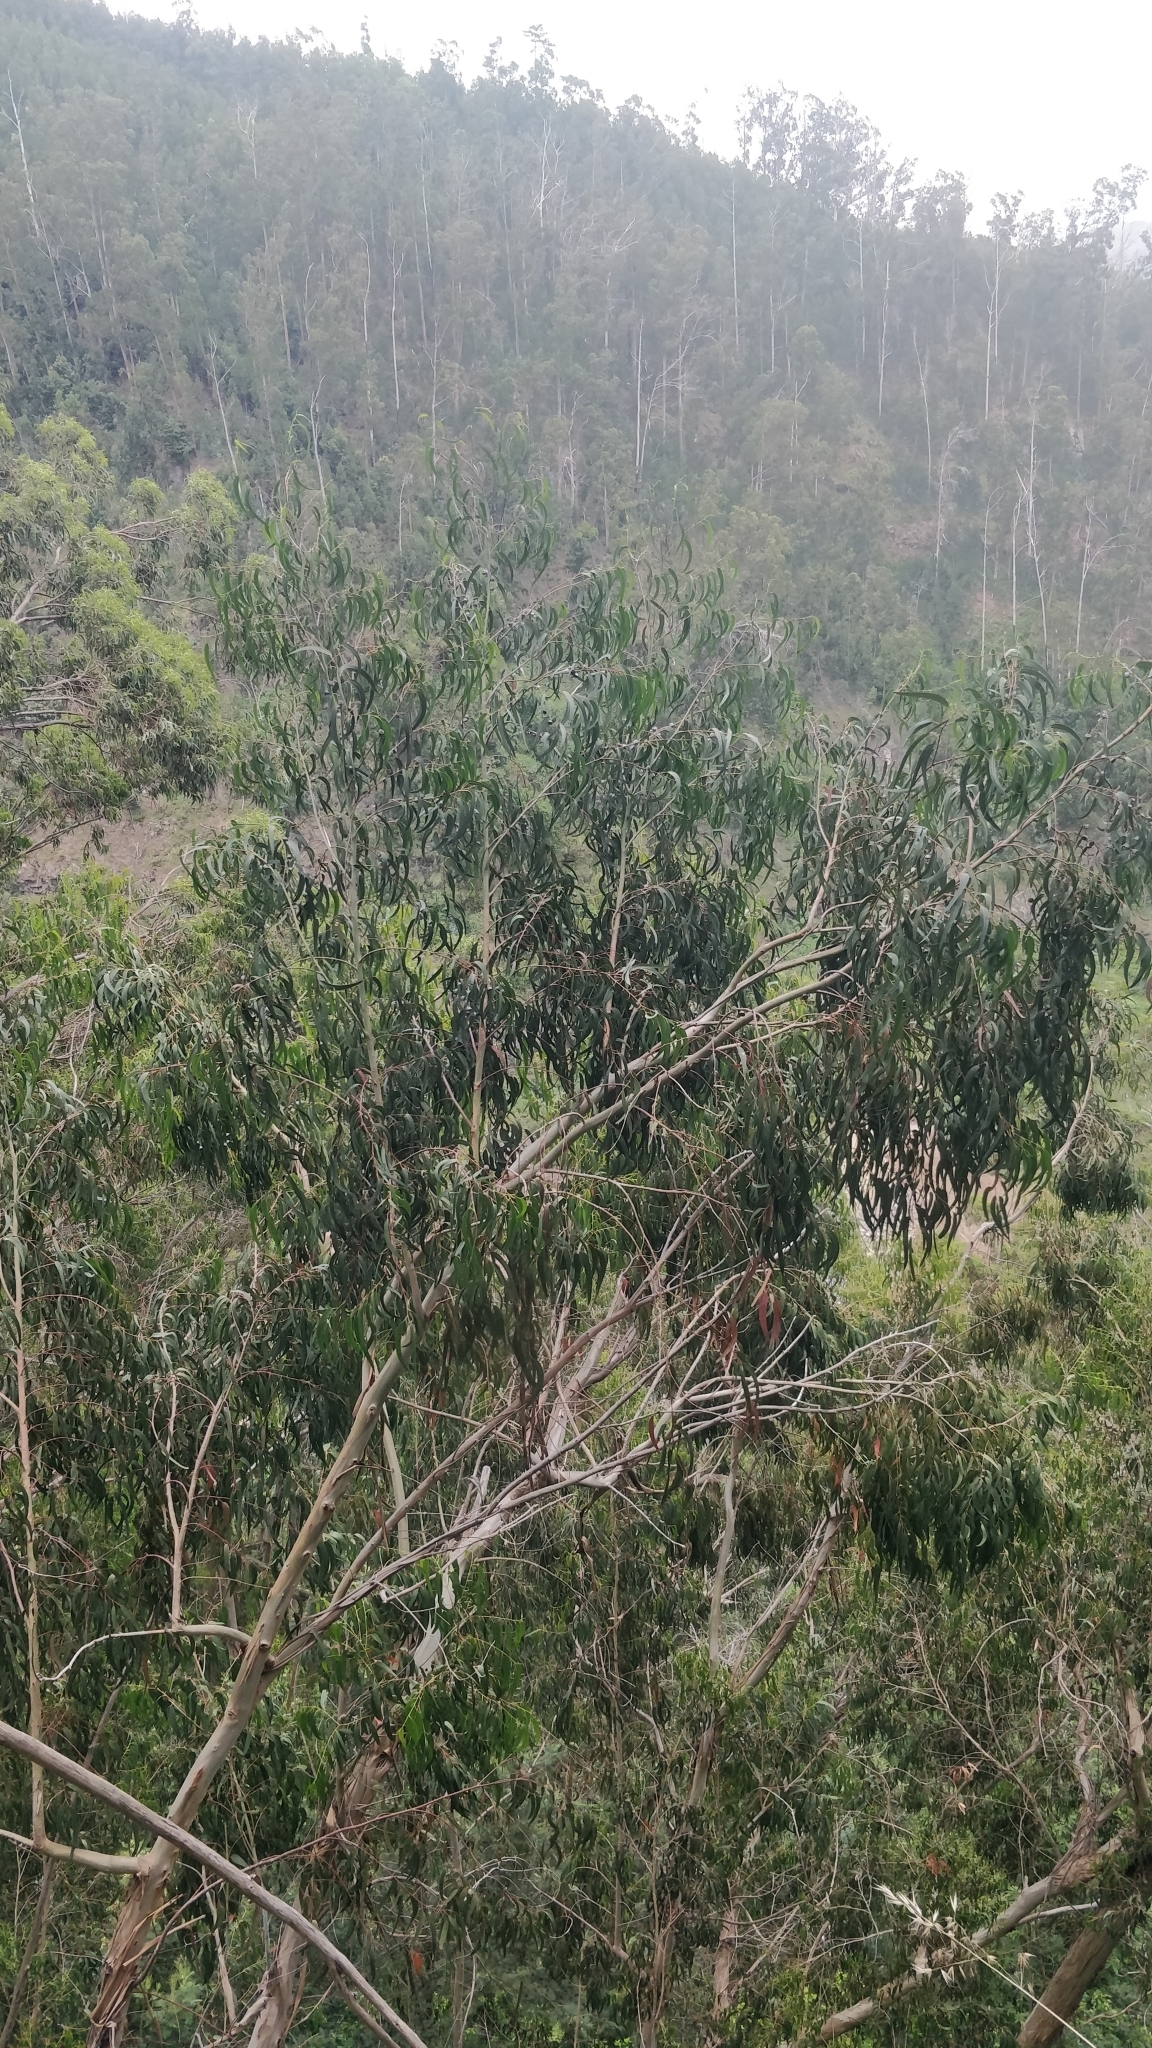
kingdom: Plantae
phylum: Tracheophyta
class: Magnoliopsida
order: Myrtales
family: Myrtaceae
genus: Eucalyptus
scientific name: Eucalyptus globulus
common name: Southern blue-gum
